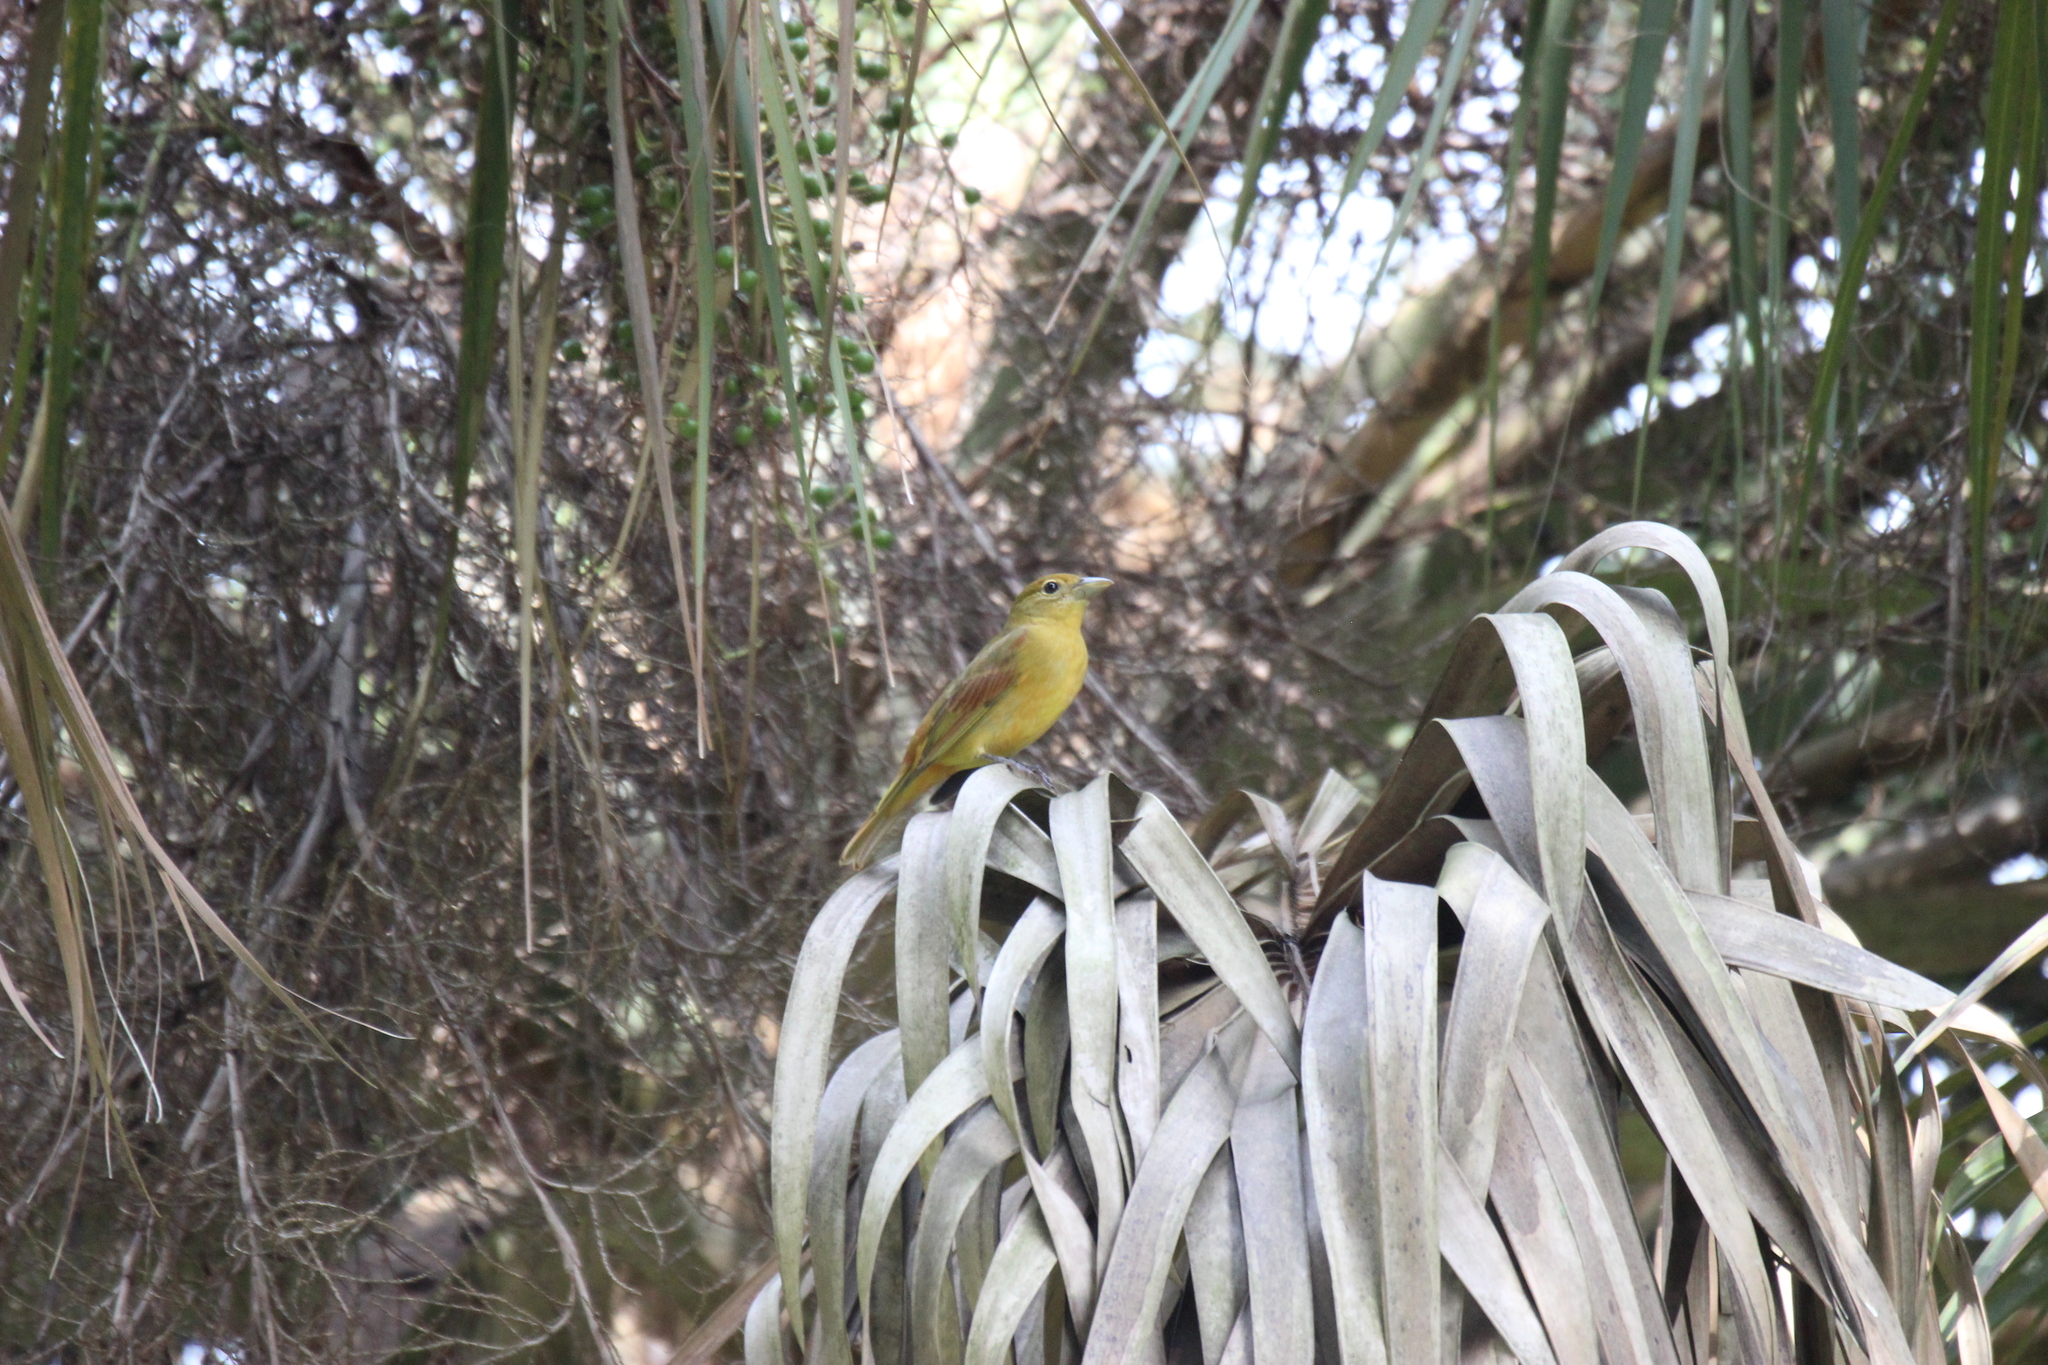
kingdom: Animalia
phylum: Chordata
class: Aves
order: Passeriformes
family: Cardinalidae
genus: Piranga
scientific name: Piranga rubra
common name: Summer tanager
